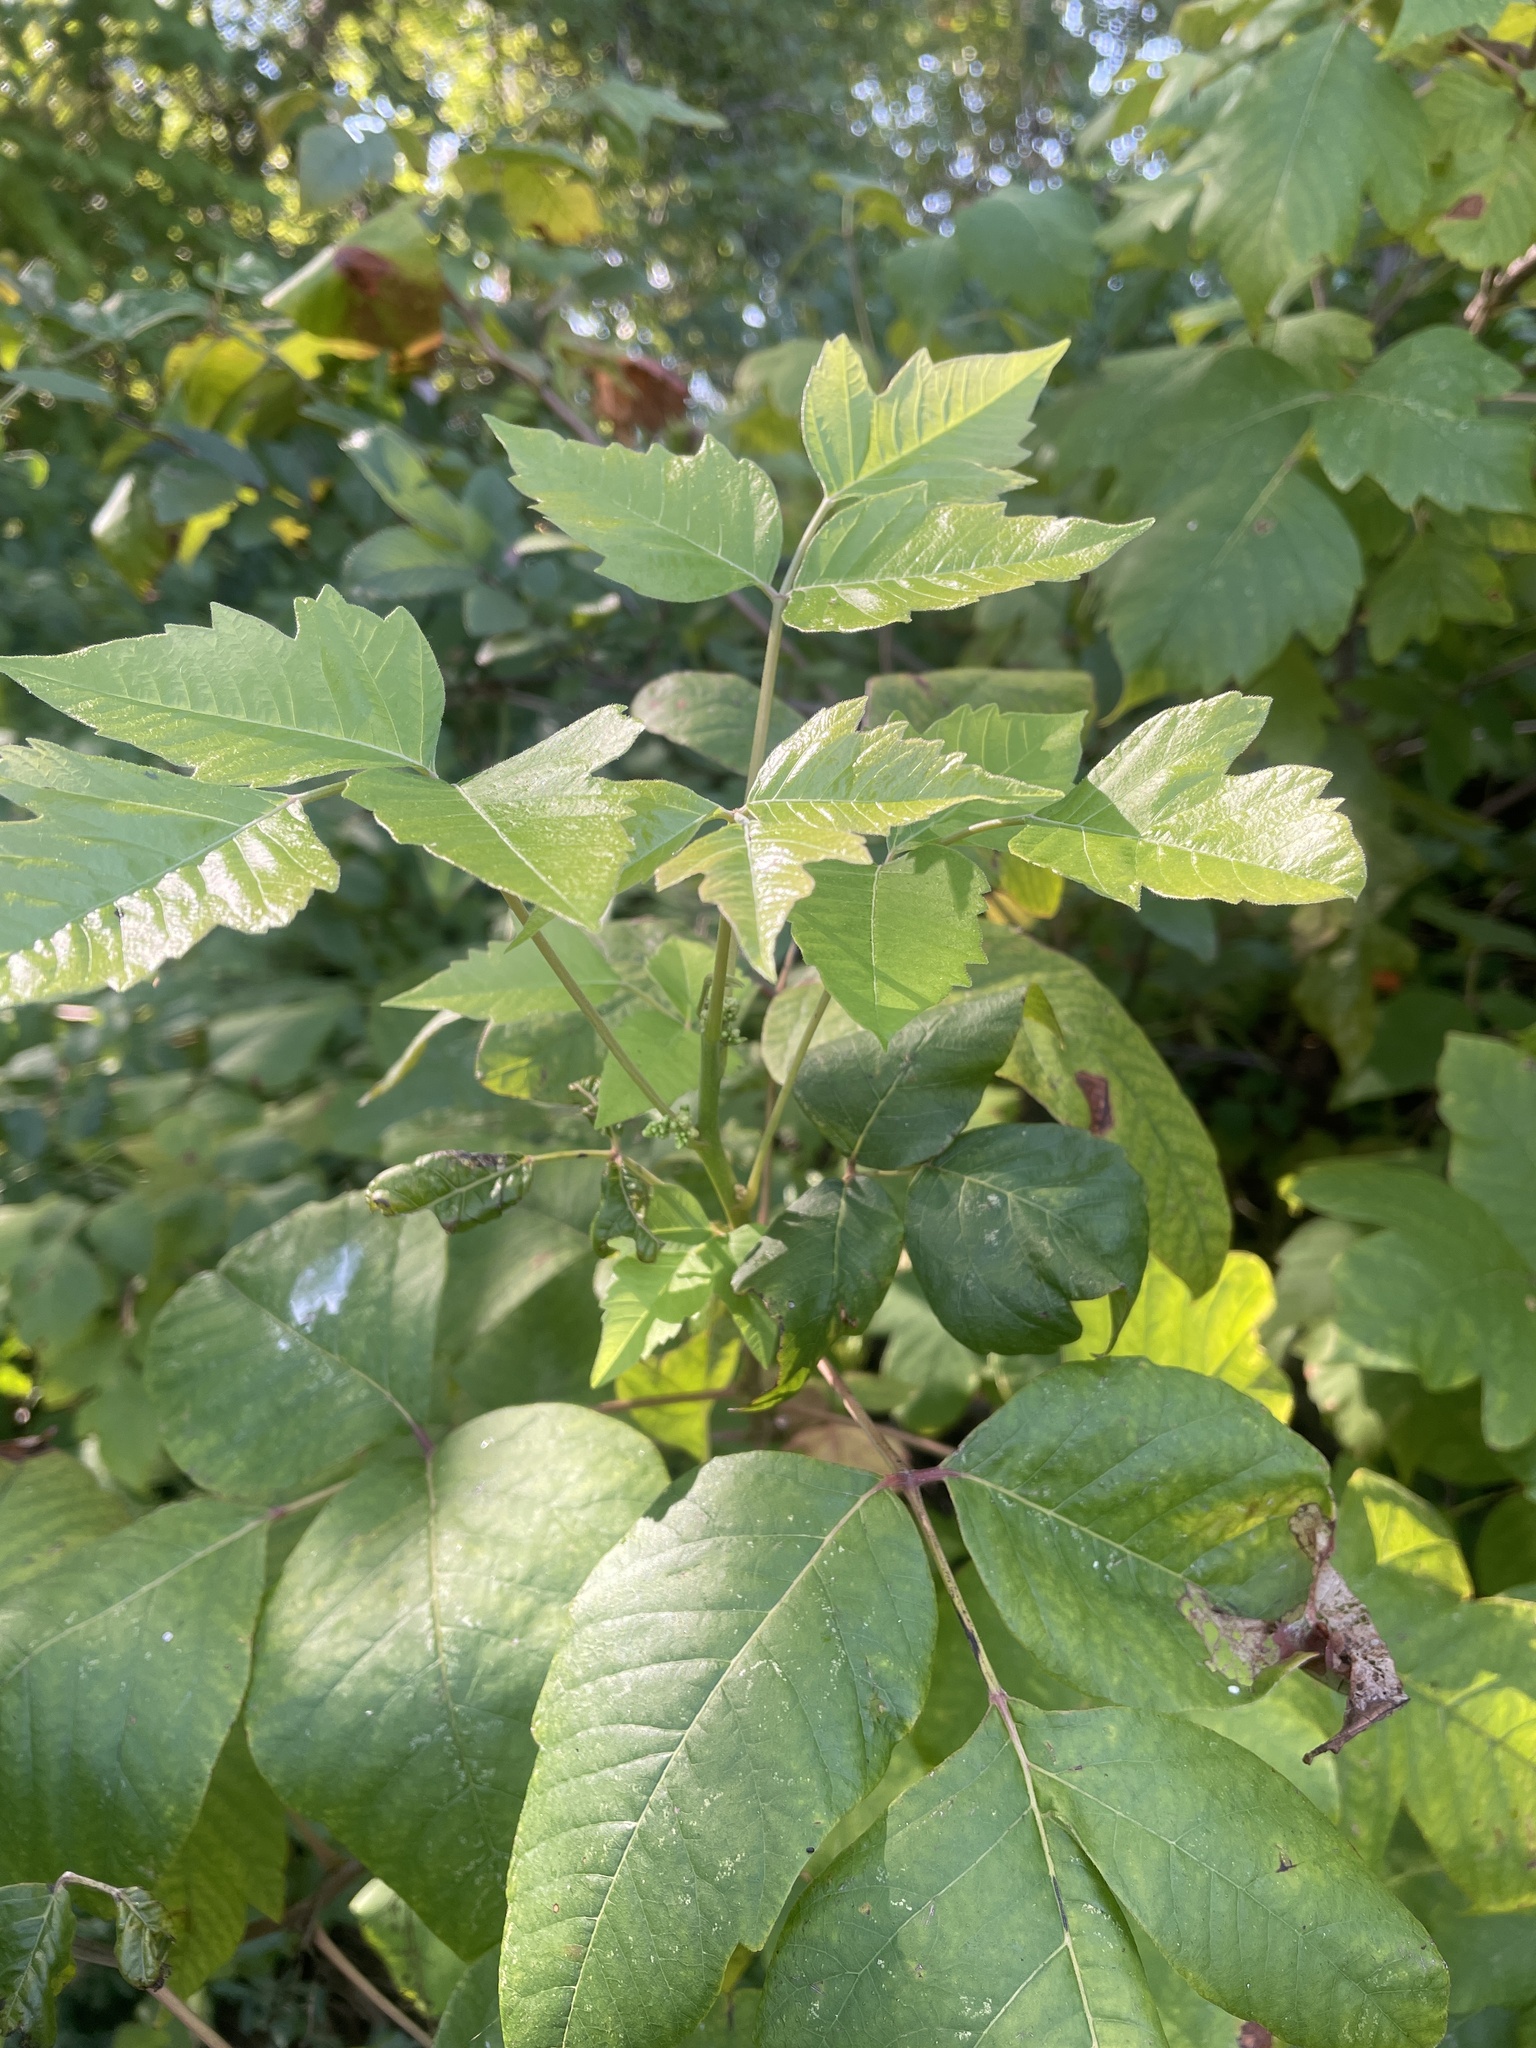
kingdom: Plantae
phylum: Tracheophyta
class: Magnoliopsida
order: Sapindales
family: Anacardiaceae
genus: Toxicodendron
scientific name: Toxicodendron radicans
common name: Poison ivy
